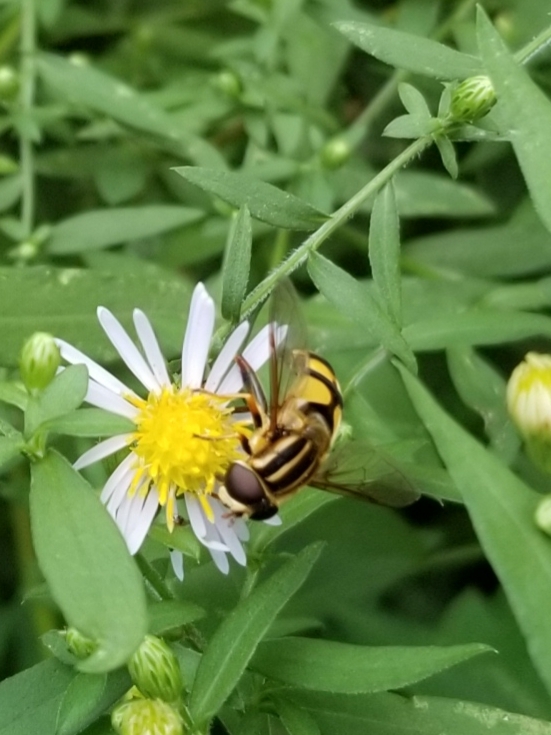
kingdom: Animalia
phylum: Arthropoda
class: Insecta
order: Diptera
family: Syrphidae
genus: Helophilus
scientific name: Helophilus fasciatus
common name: Narrow-headed marsh fly
